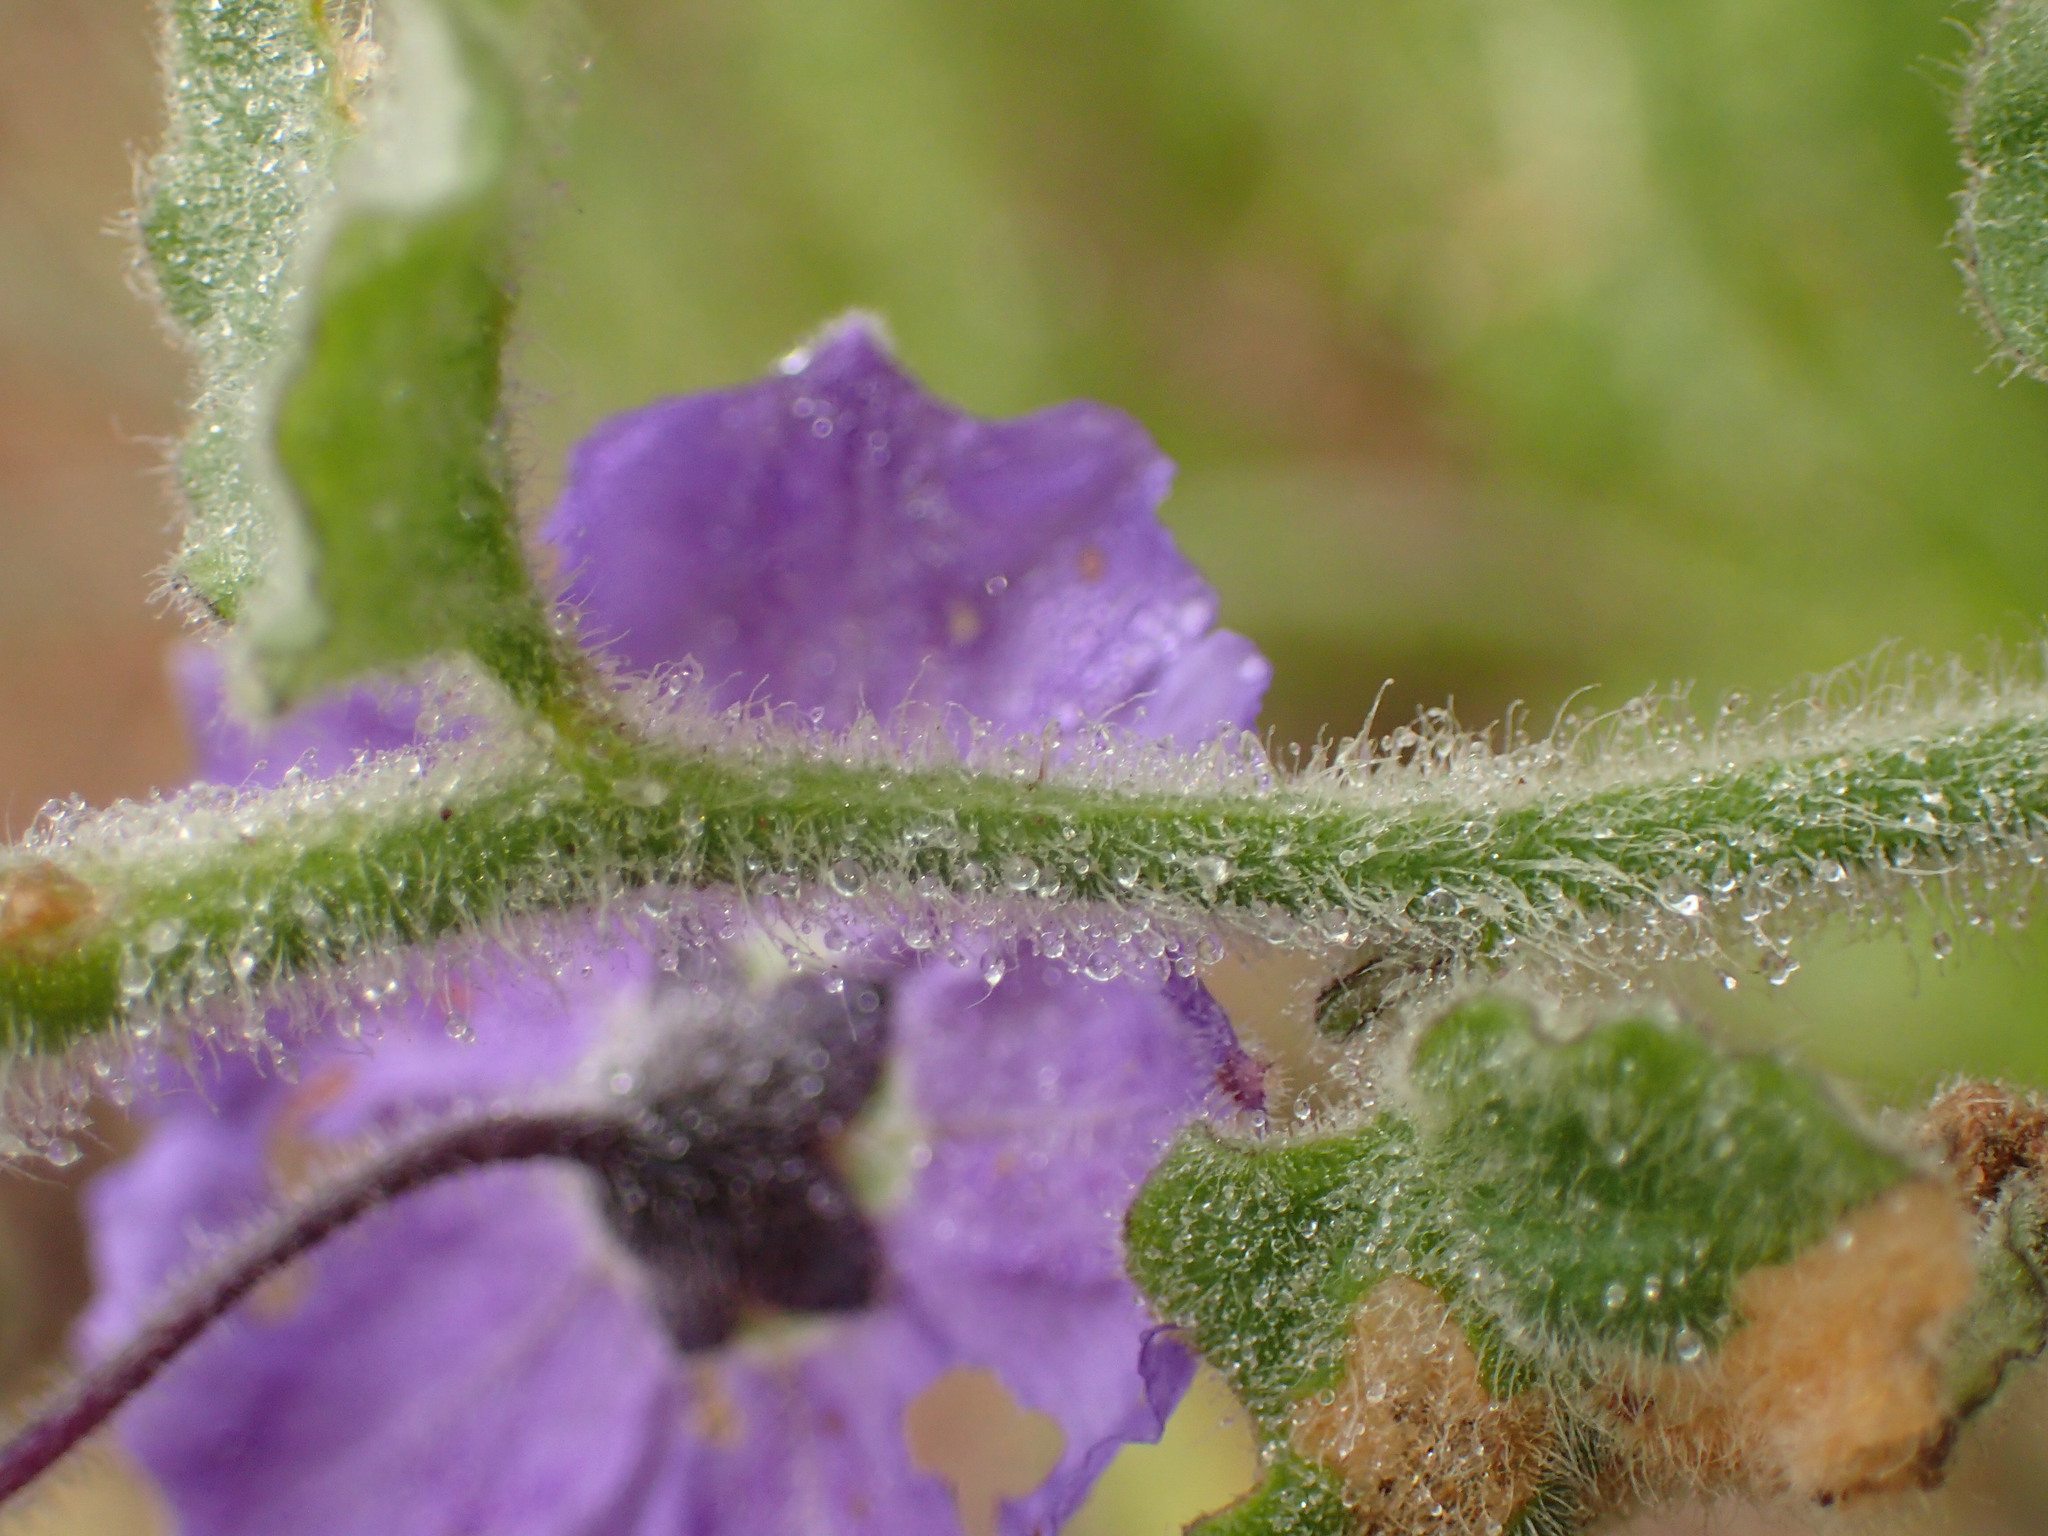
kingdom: Plantae
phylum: Tracheophyta
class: Magnoliopsida
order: Solanales
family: Solanaceae
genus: Solanum
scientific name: Solanum umbelliferum
